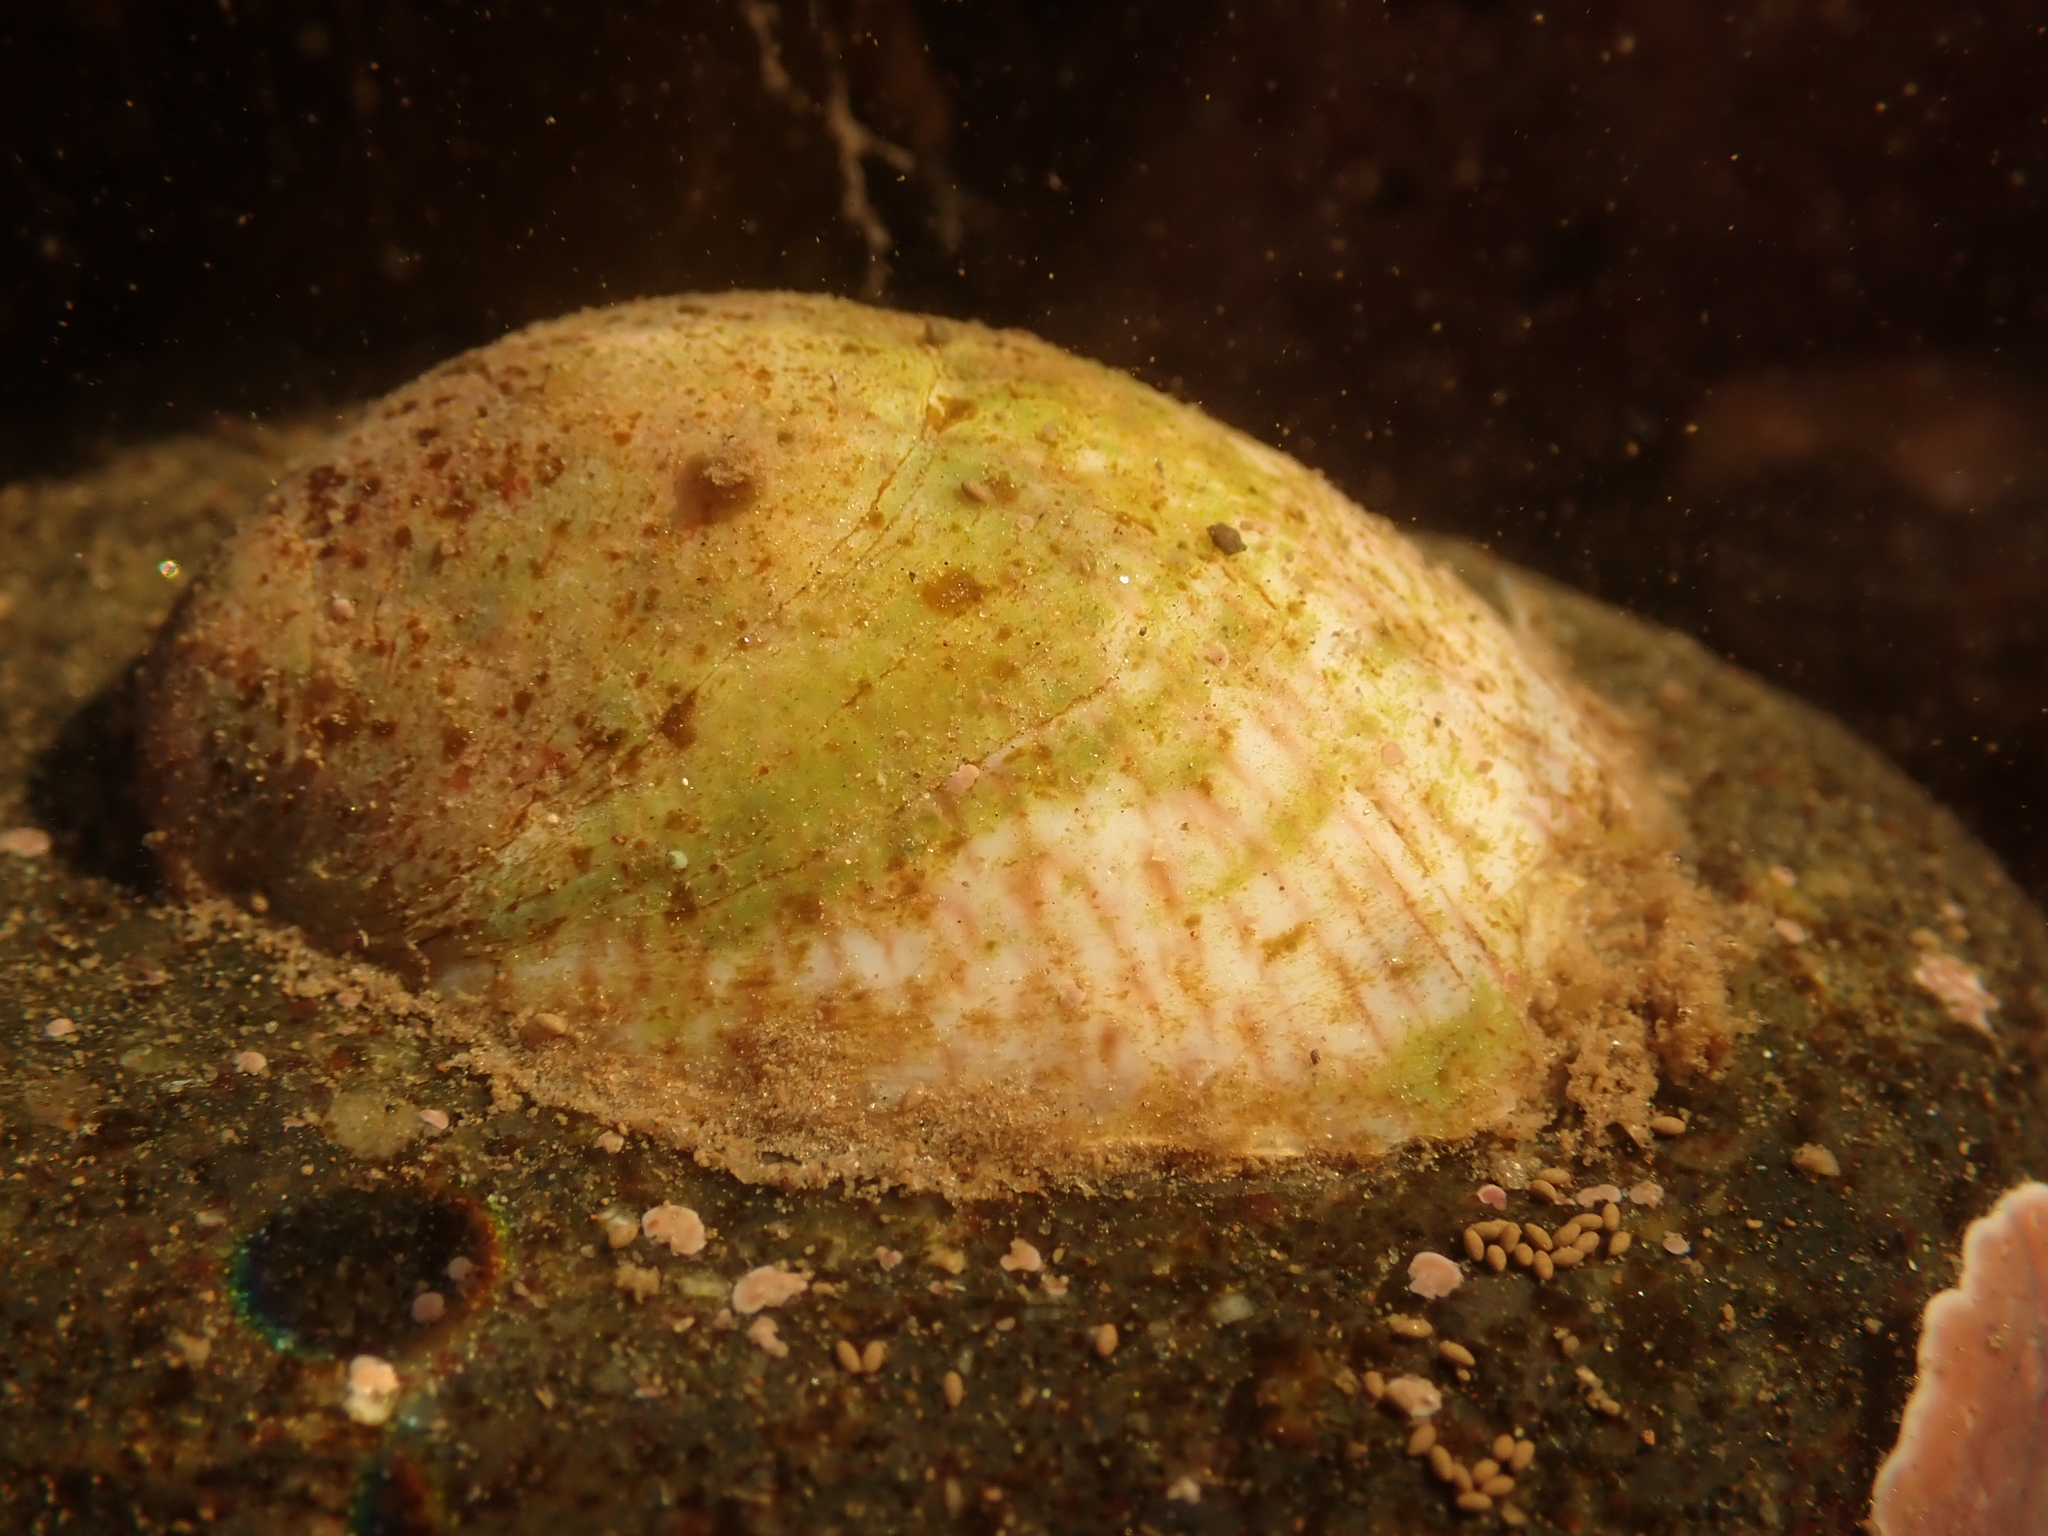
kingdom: Animalia
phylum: Mollusca
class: Gastropoda
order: Littorinimorpha
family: Calyptraeidae
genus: Crepidula
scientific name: Crepidula fornicata
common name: Slipper limpet
